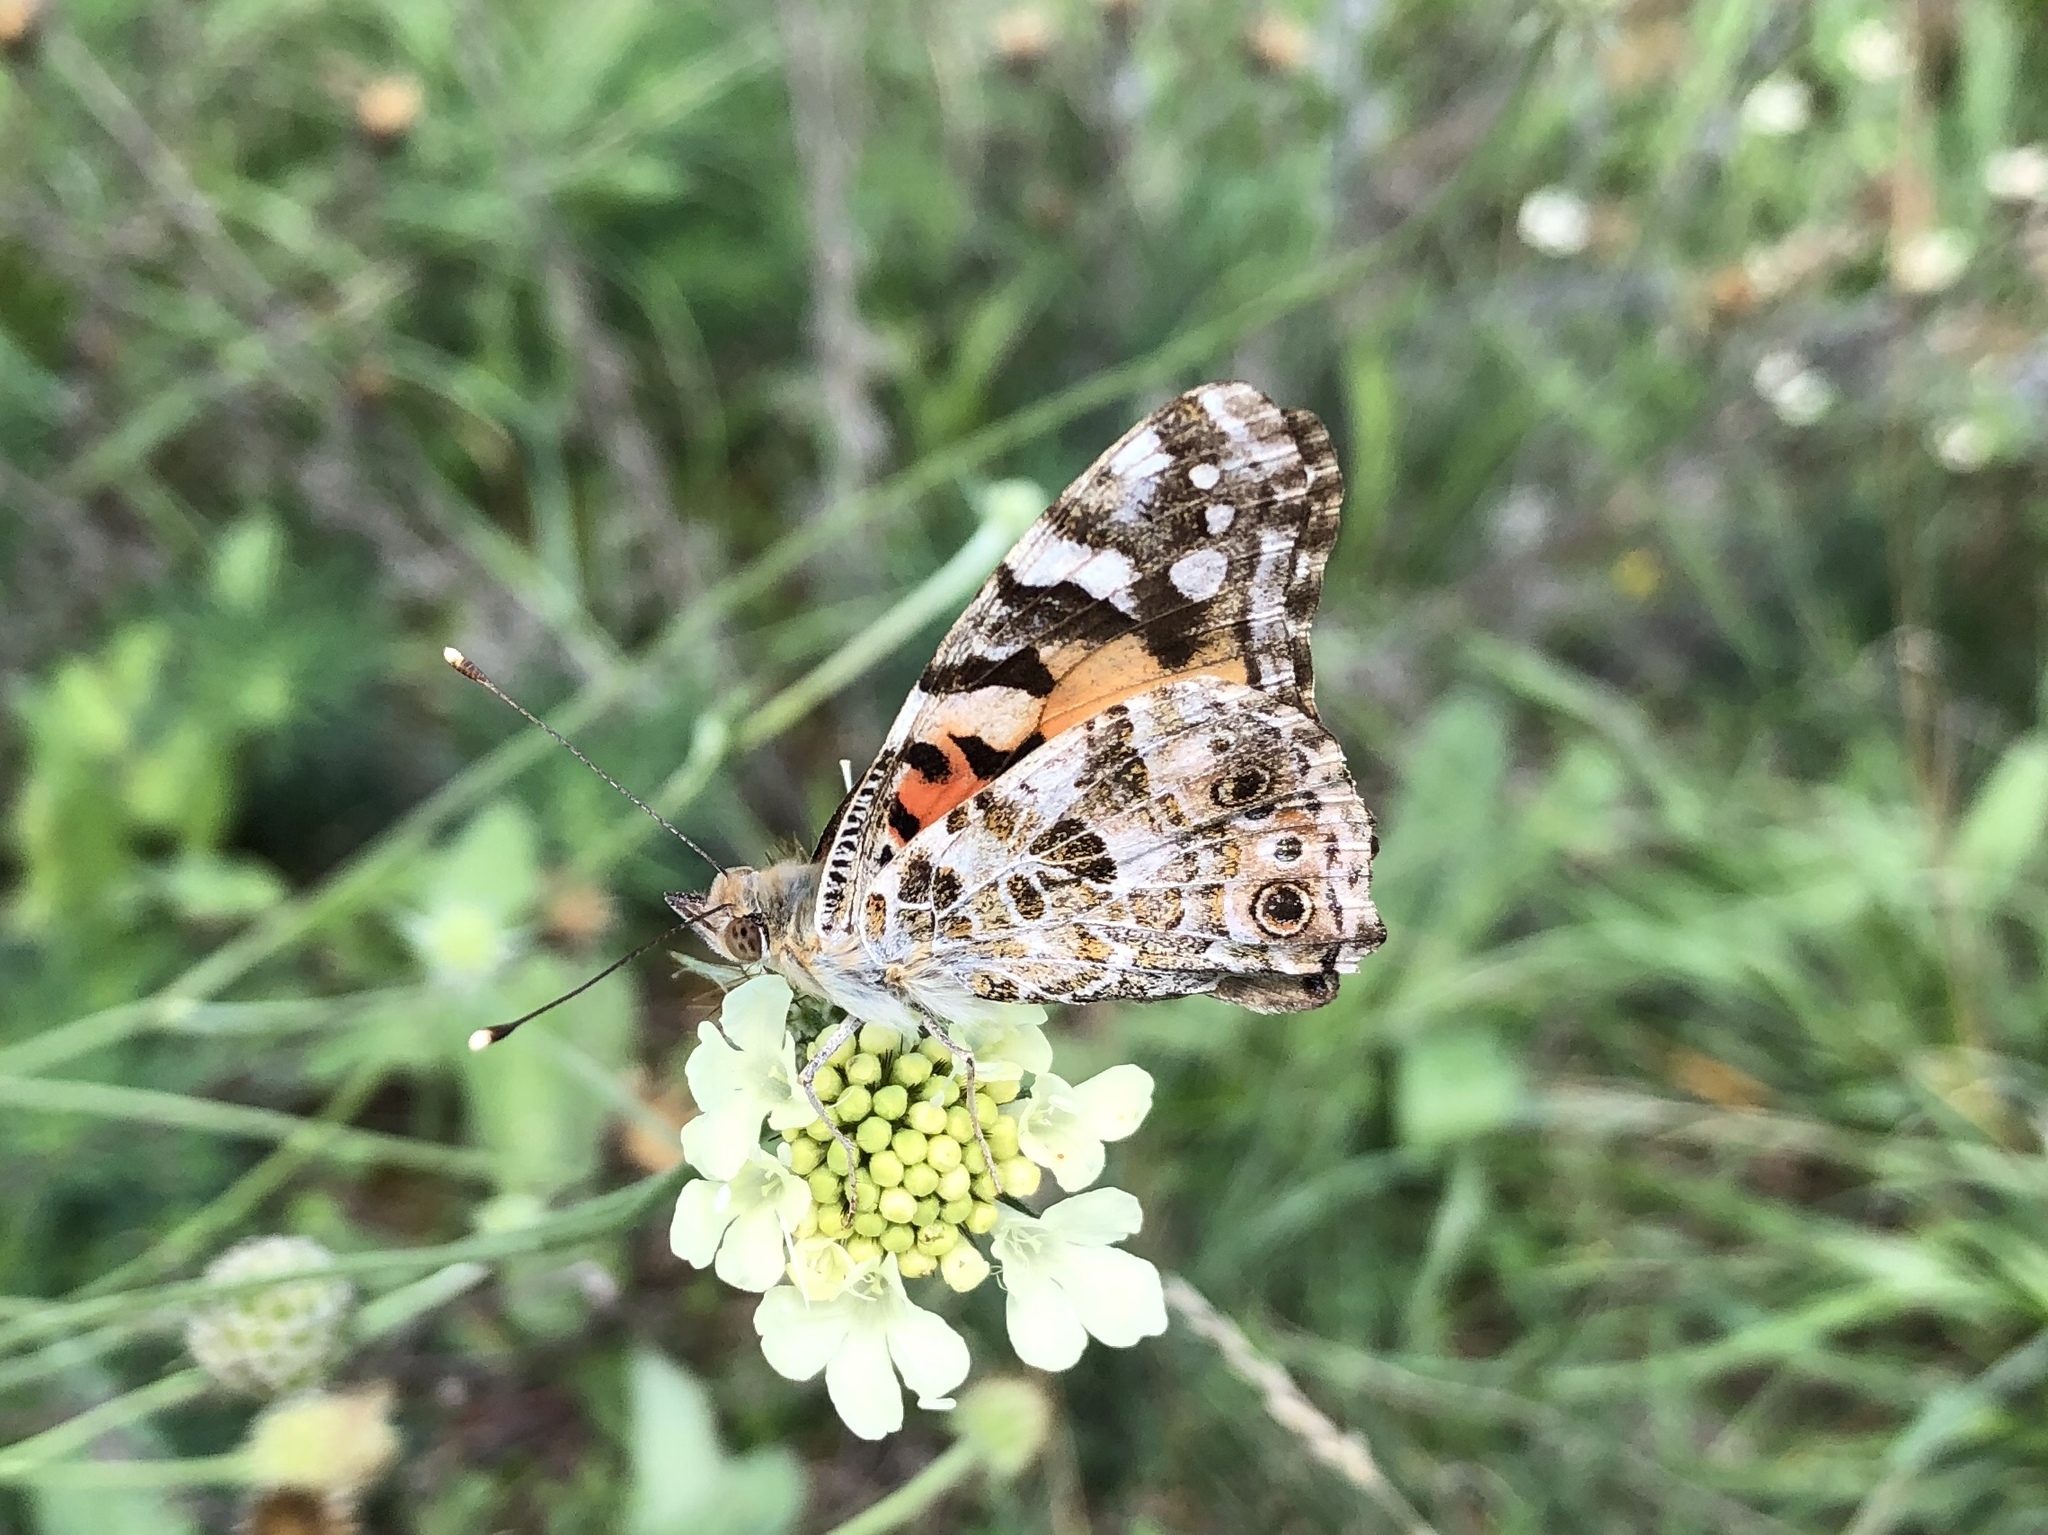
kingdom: Animalia
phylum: Arthropoda
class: Insecta
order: Lepidoptera
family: Nymphalidae
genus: Vanessa
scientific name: Vanessa cardui
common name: Painted lady
